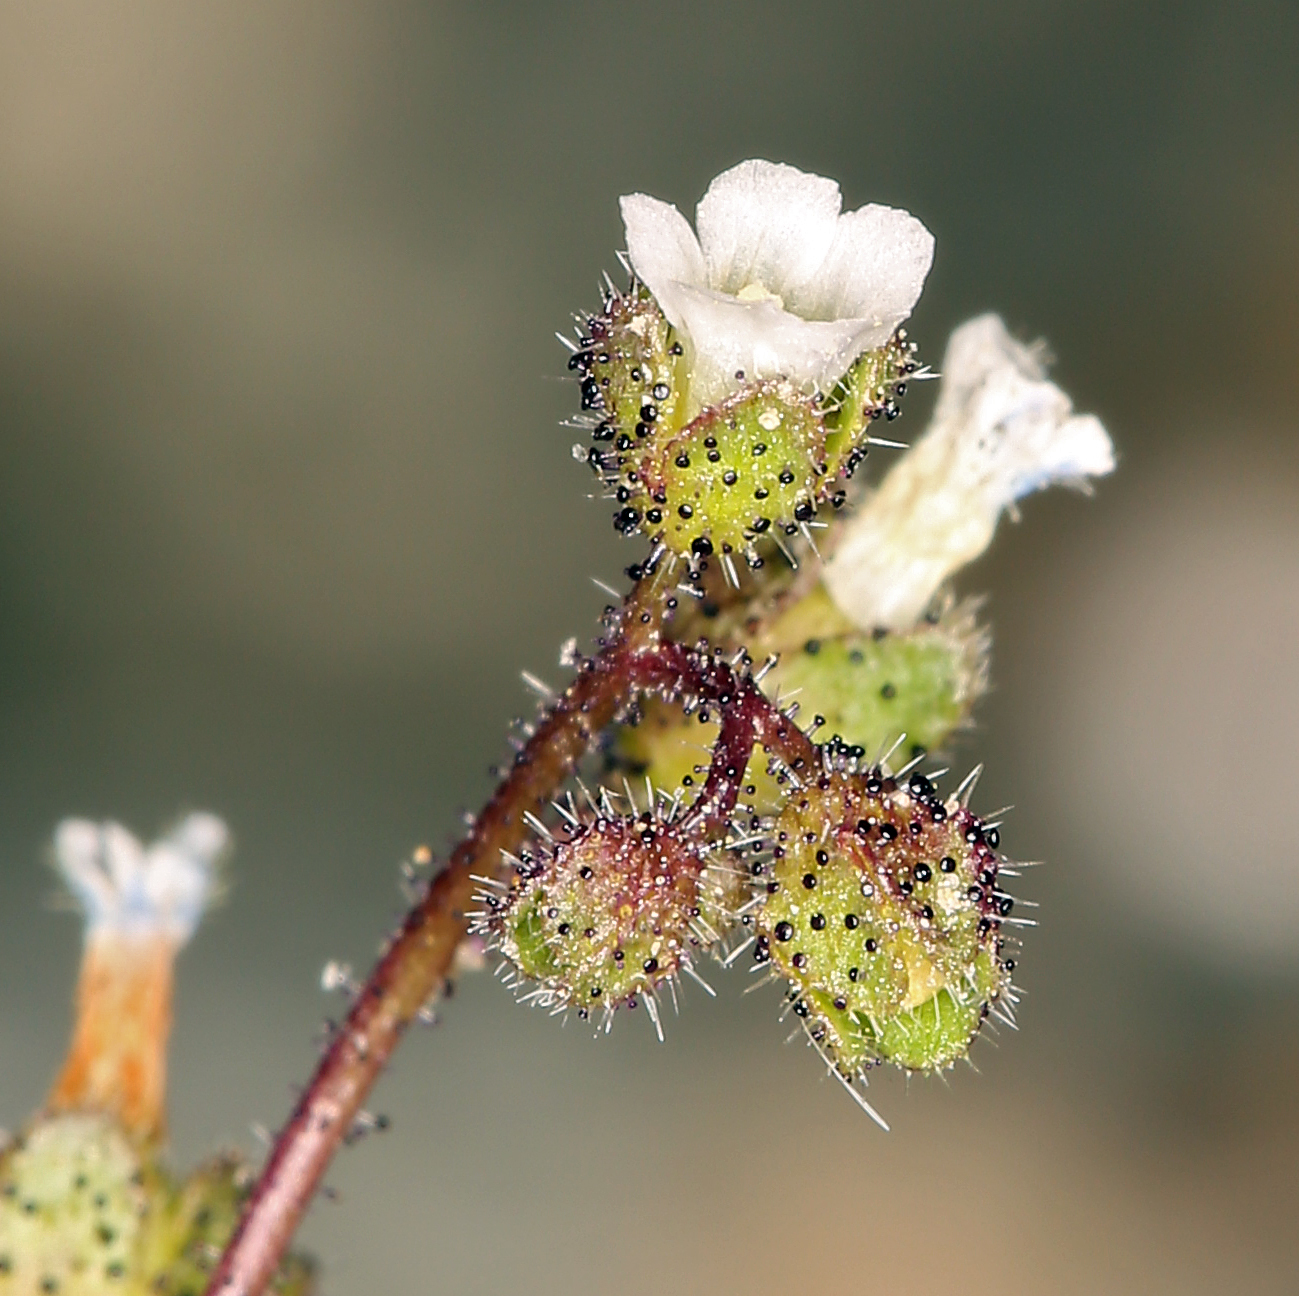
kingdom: Plantae
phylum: Tracheophyta
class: Magnoliopsida
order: Boraginales
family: Hydrophyllaceae
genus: Eucrypta
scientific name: Eucrypta micrantha
